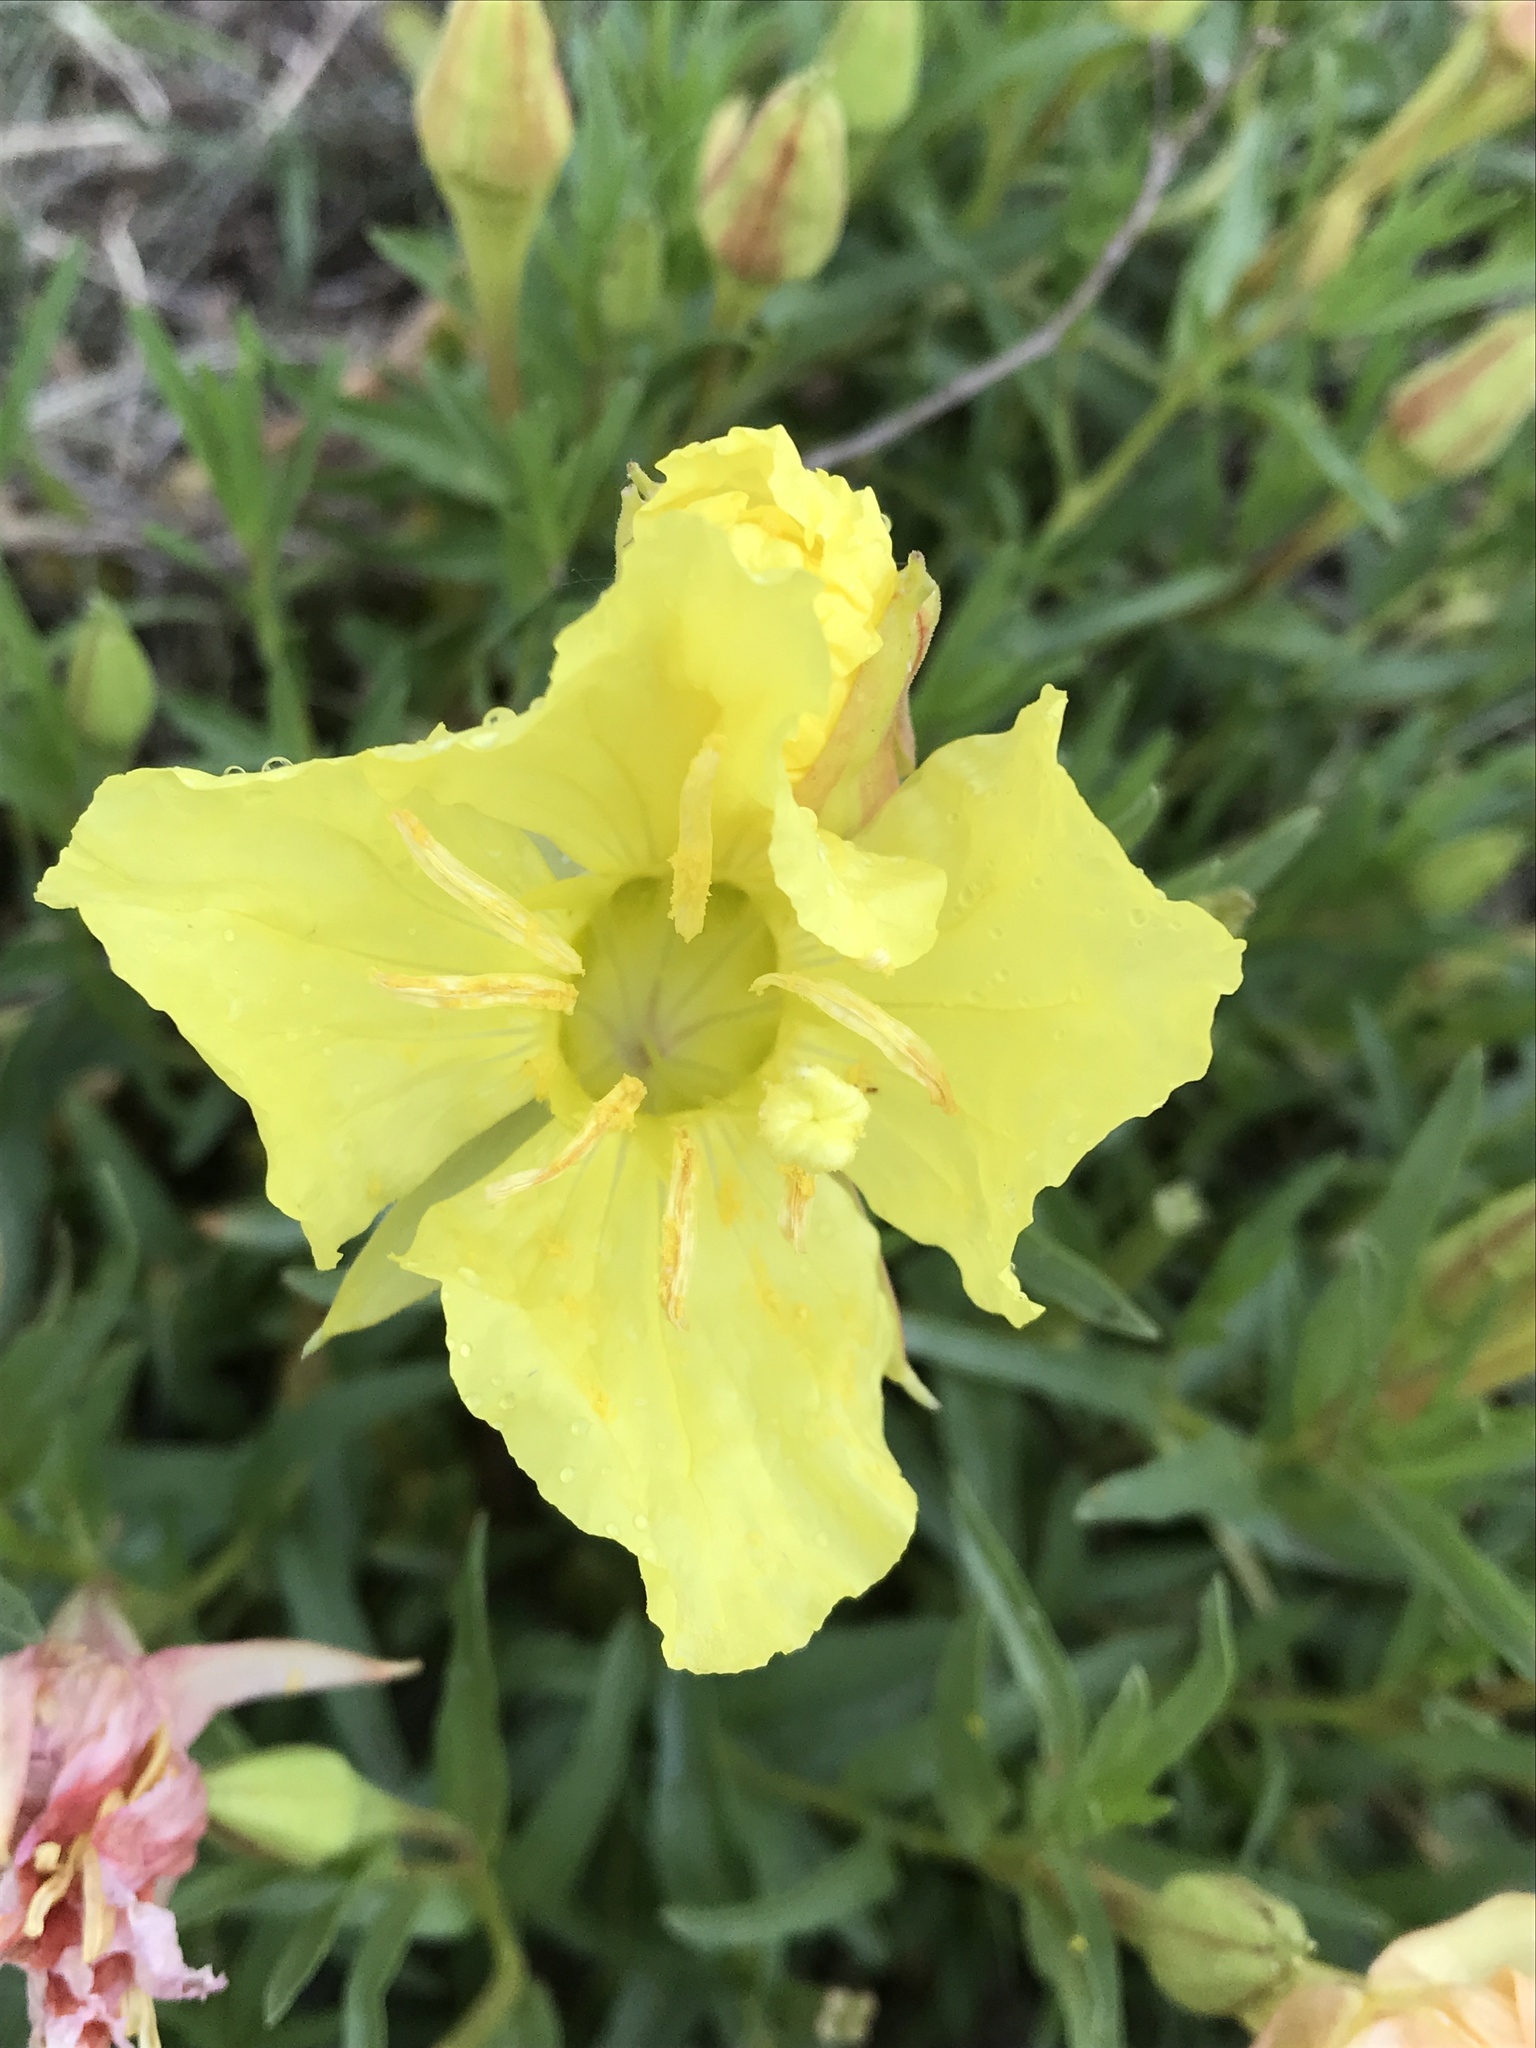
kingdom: Plantae
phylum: Tracheophyta
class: Magnoliopsida
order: Myrtales
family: Onagraceae
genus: Oenothera
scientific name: Oenothera hartwegii
